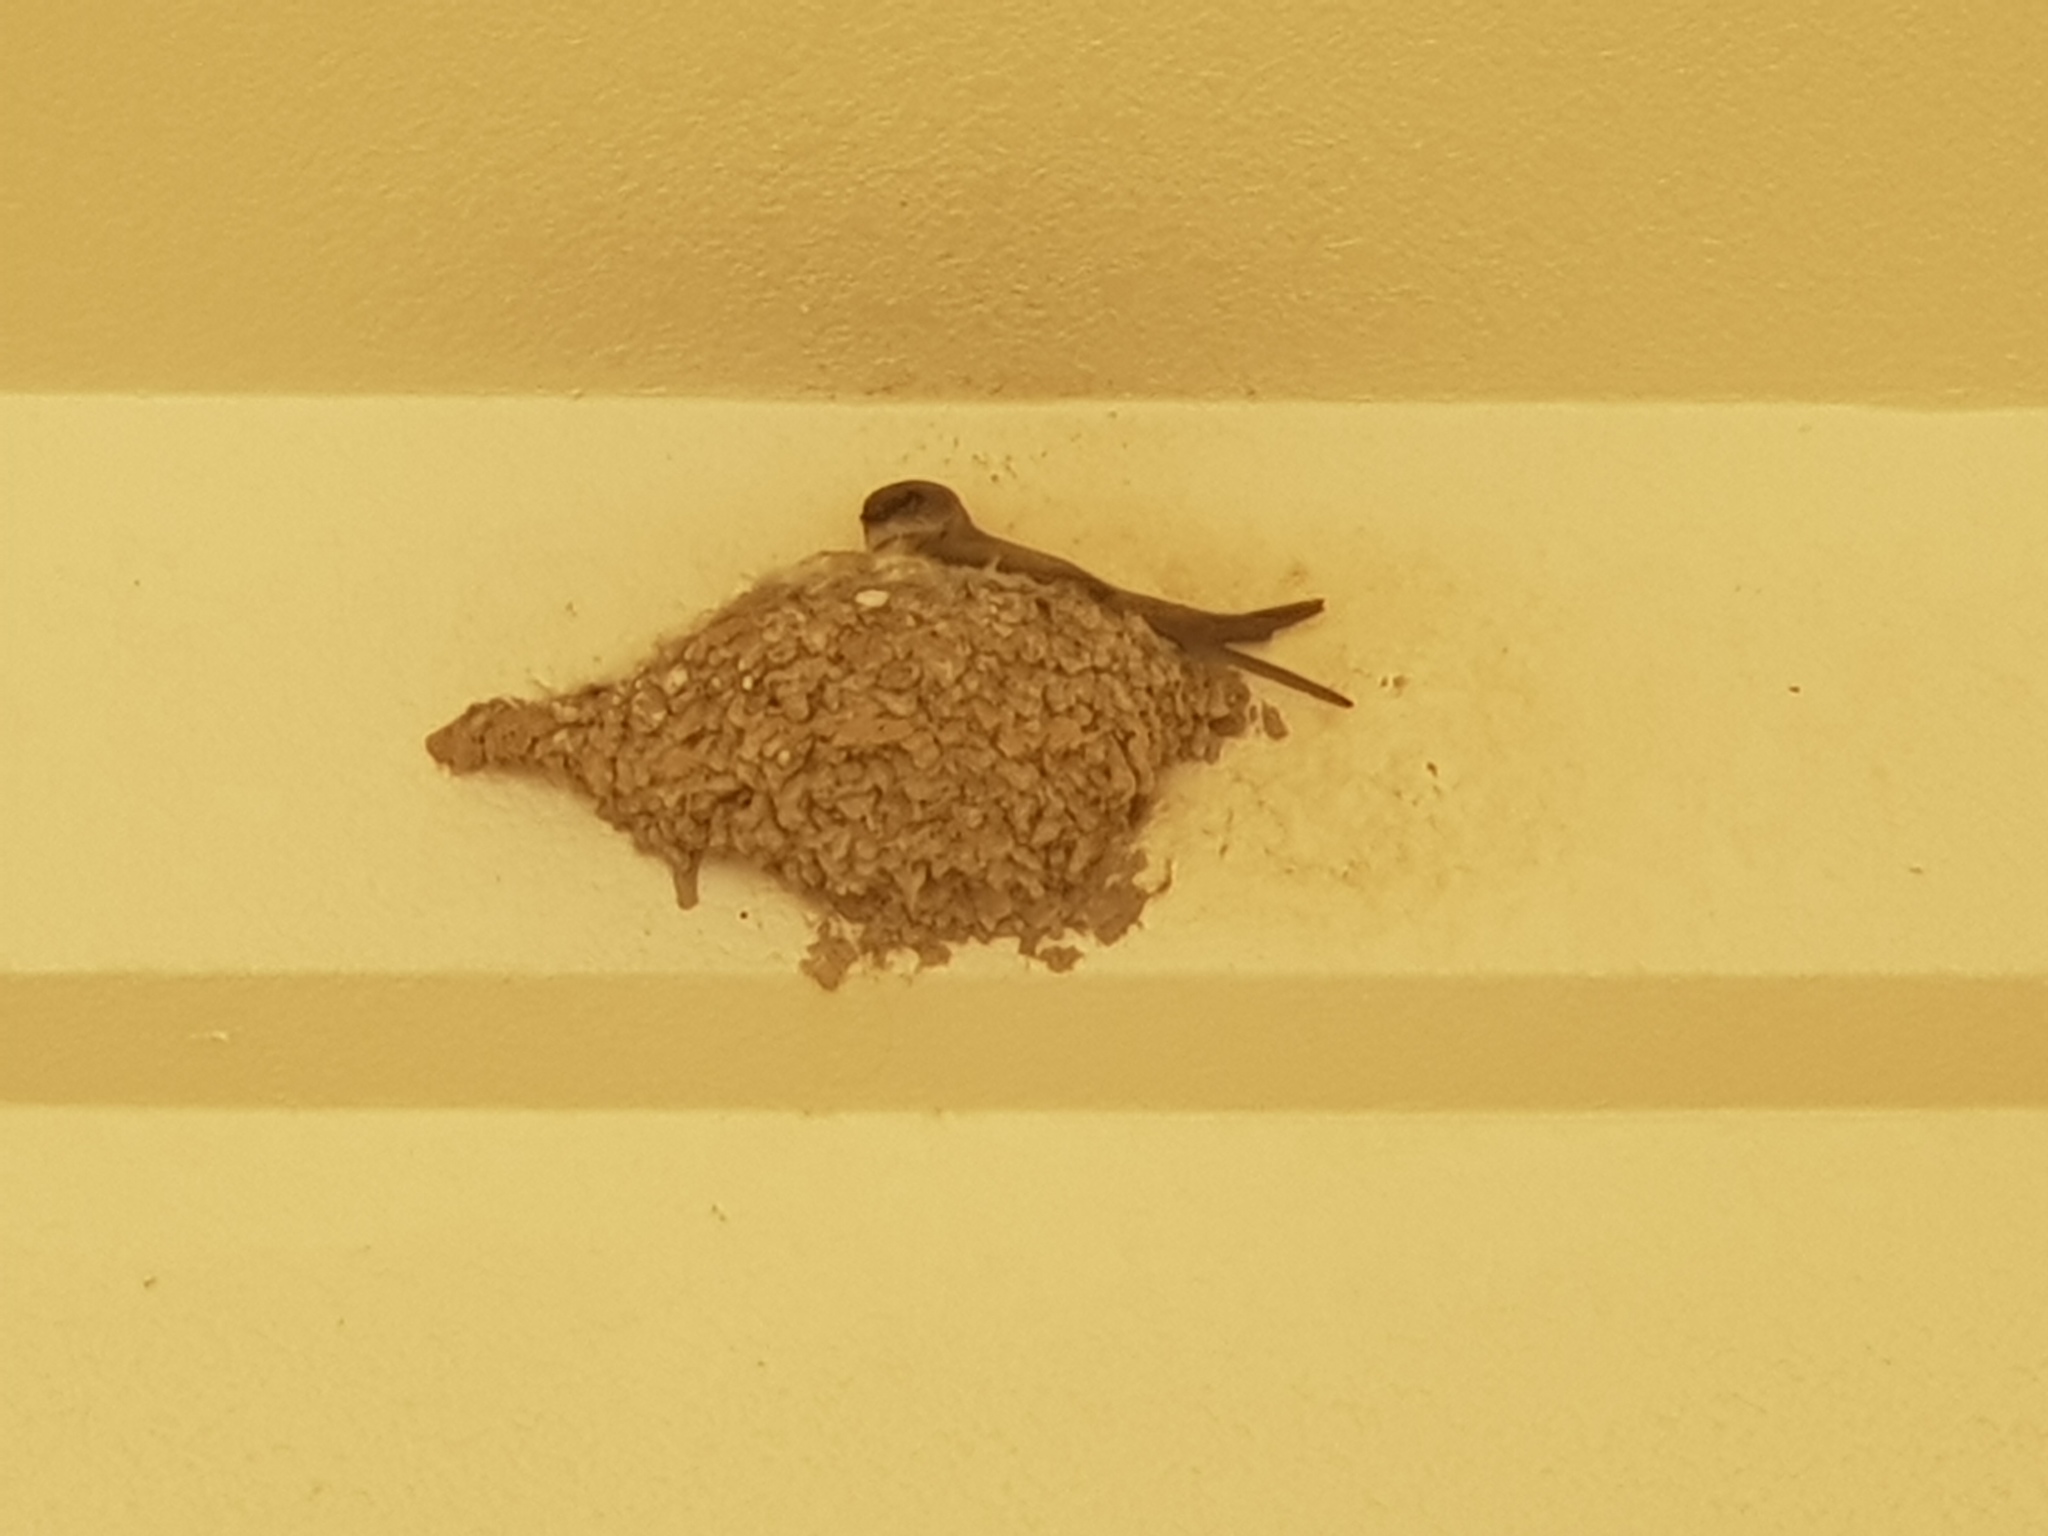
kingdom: Animalia
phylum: Chordata
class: Aves
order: Passeriformes
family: Hirundinidae
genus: Ptyonoprogne
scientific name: Ptyonoprogne fuligula
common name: Rock martin
